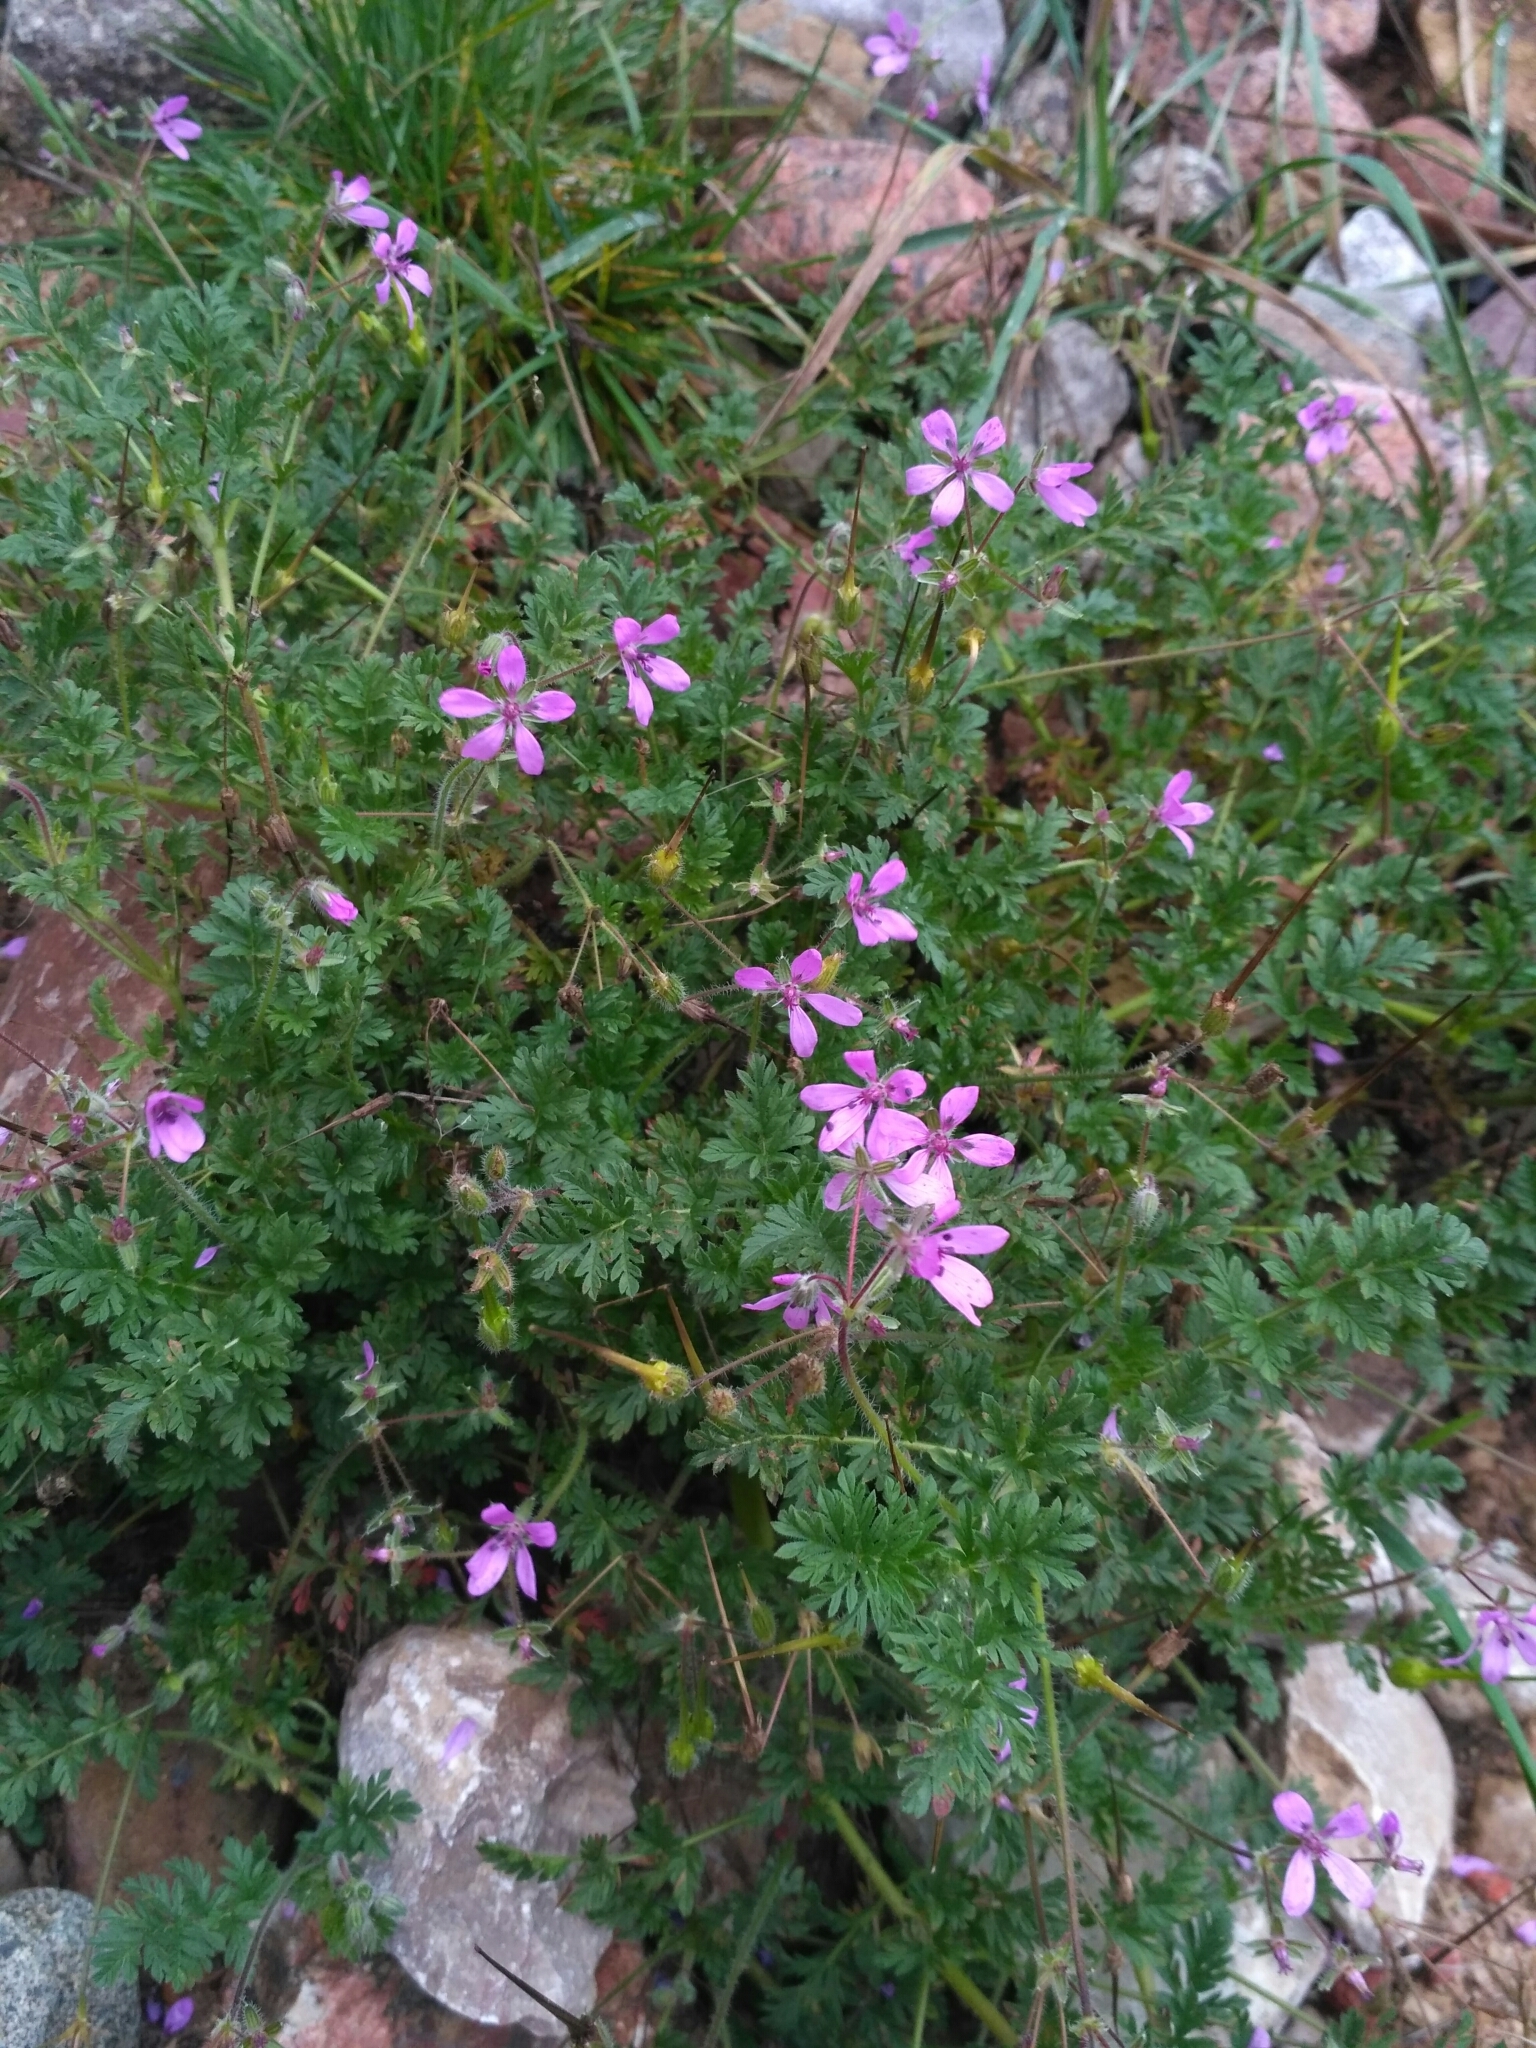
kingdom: Plantae
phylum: Tracheophyta
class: Magnoliopsida
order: Geraniales
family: Geraniaceae
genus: Erodium
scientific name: Erodium cicutarium
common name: Common stork's-bill
